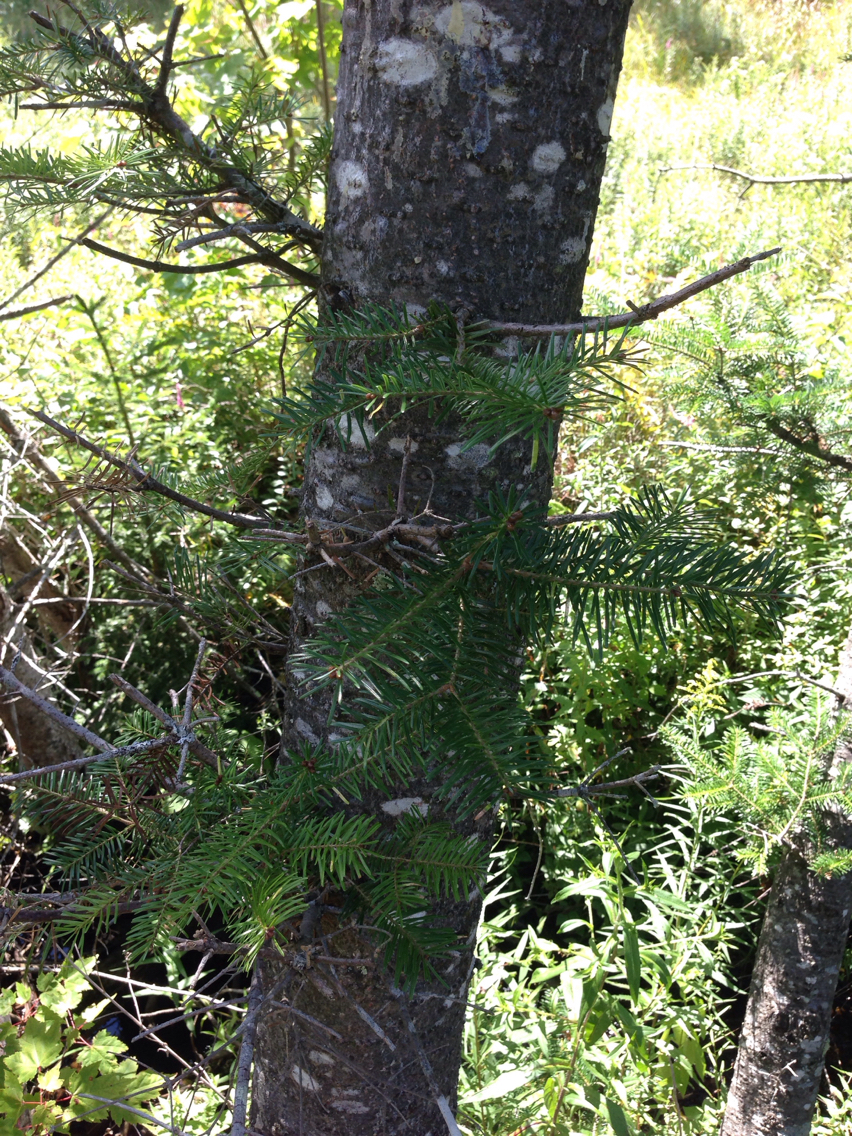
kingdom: Plantae
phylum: Tracheophyta
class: Pinopsida
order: Pinales
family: Pinaceae
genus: Abies
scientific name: Abies balsamea
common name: Balsam fir
